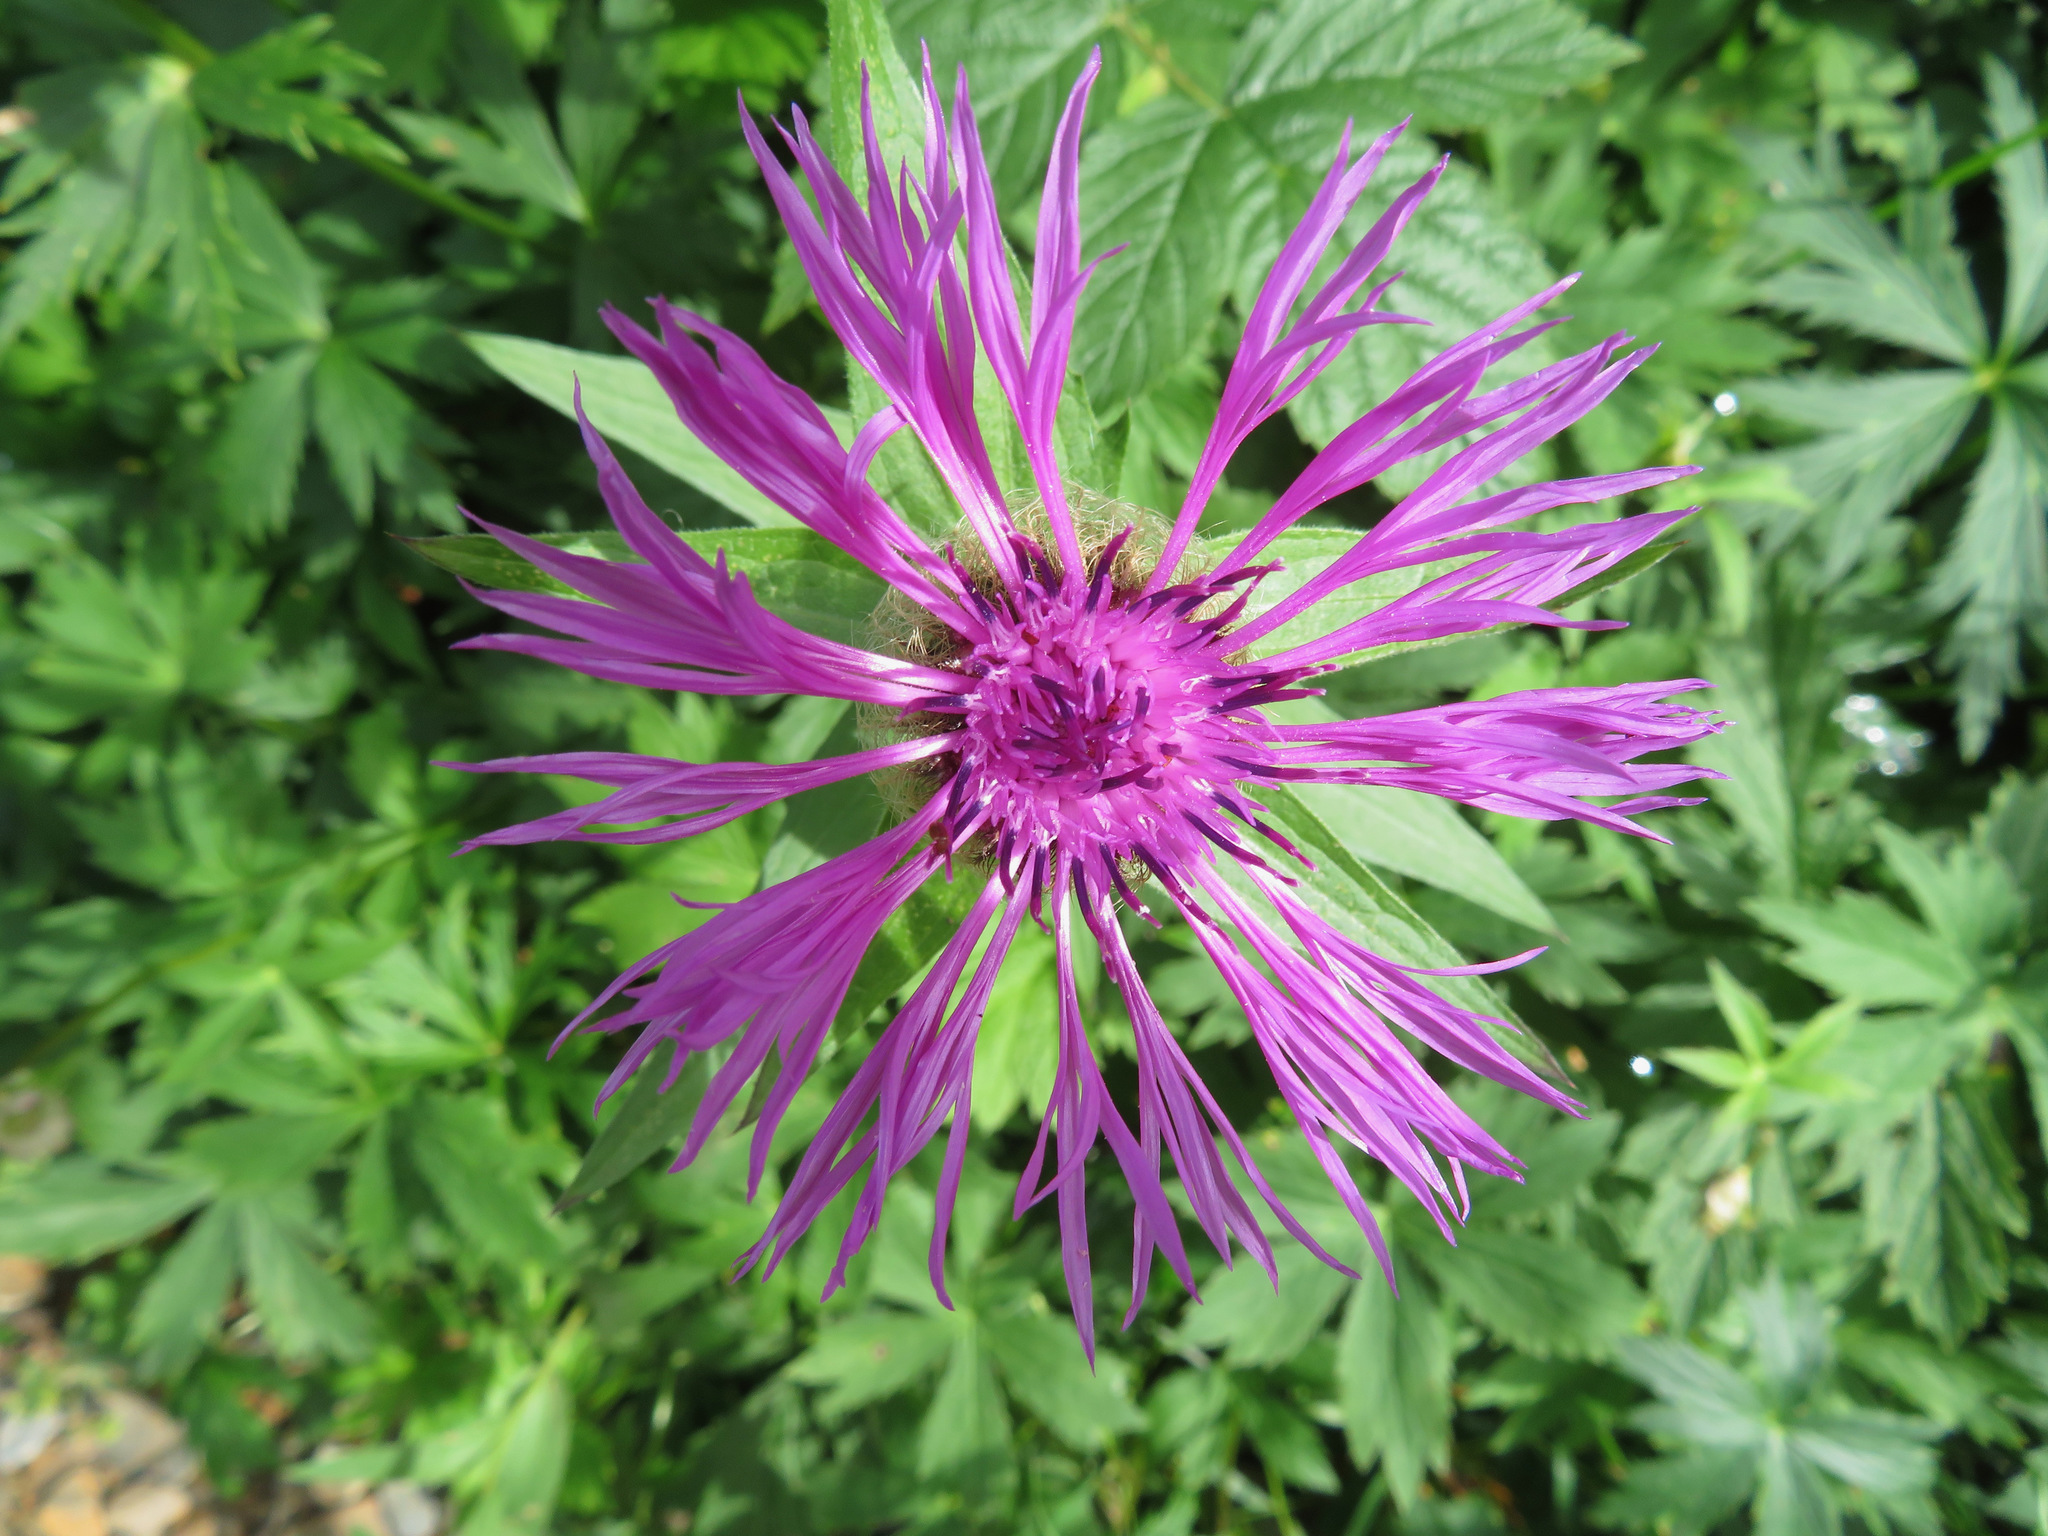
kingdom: Plantae
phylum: Tracheophyta
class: Magnoliopsida
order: Asterales
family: Asteraceae
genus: Centaurea
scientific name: Centaurea nervosa
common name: Singleflower knapweed
